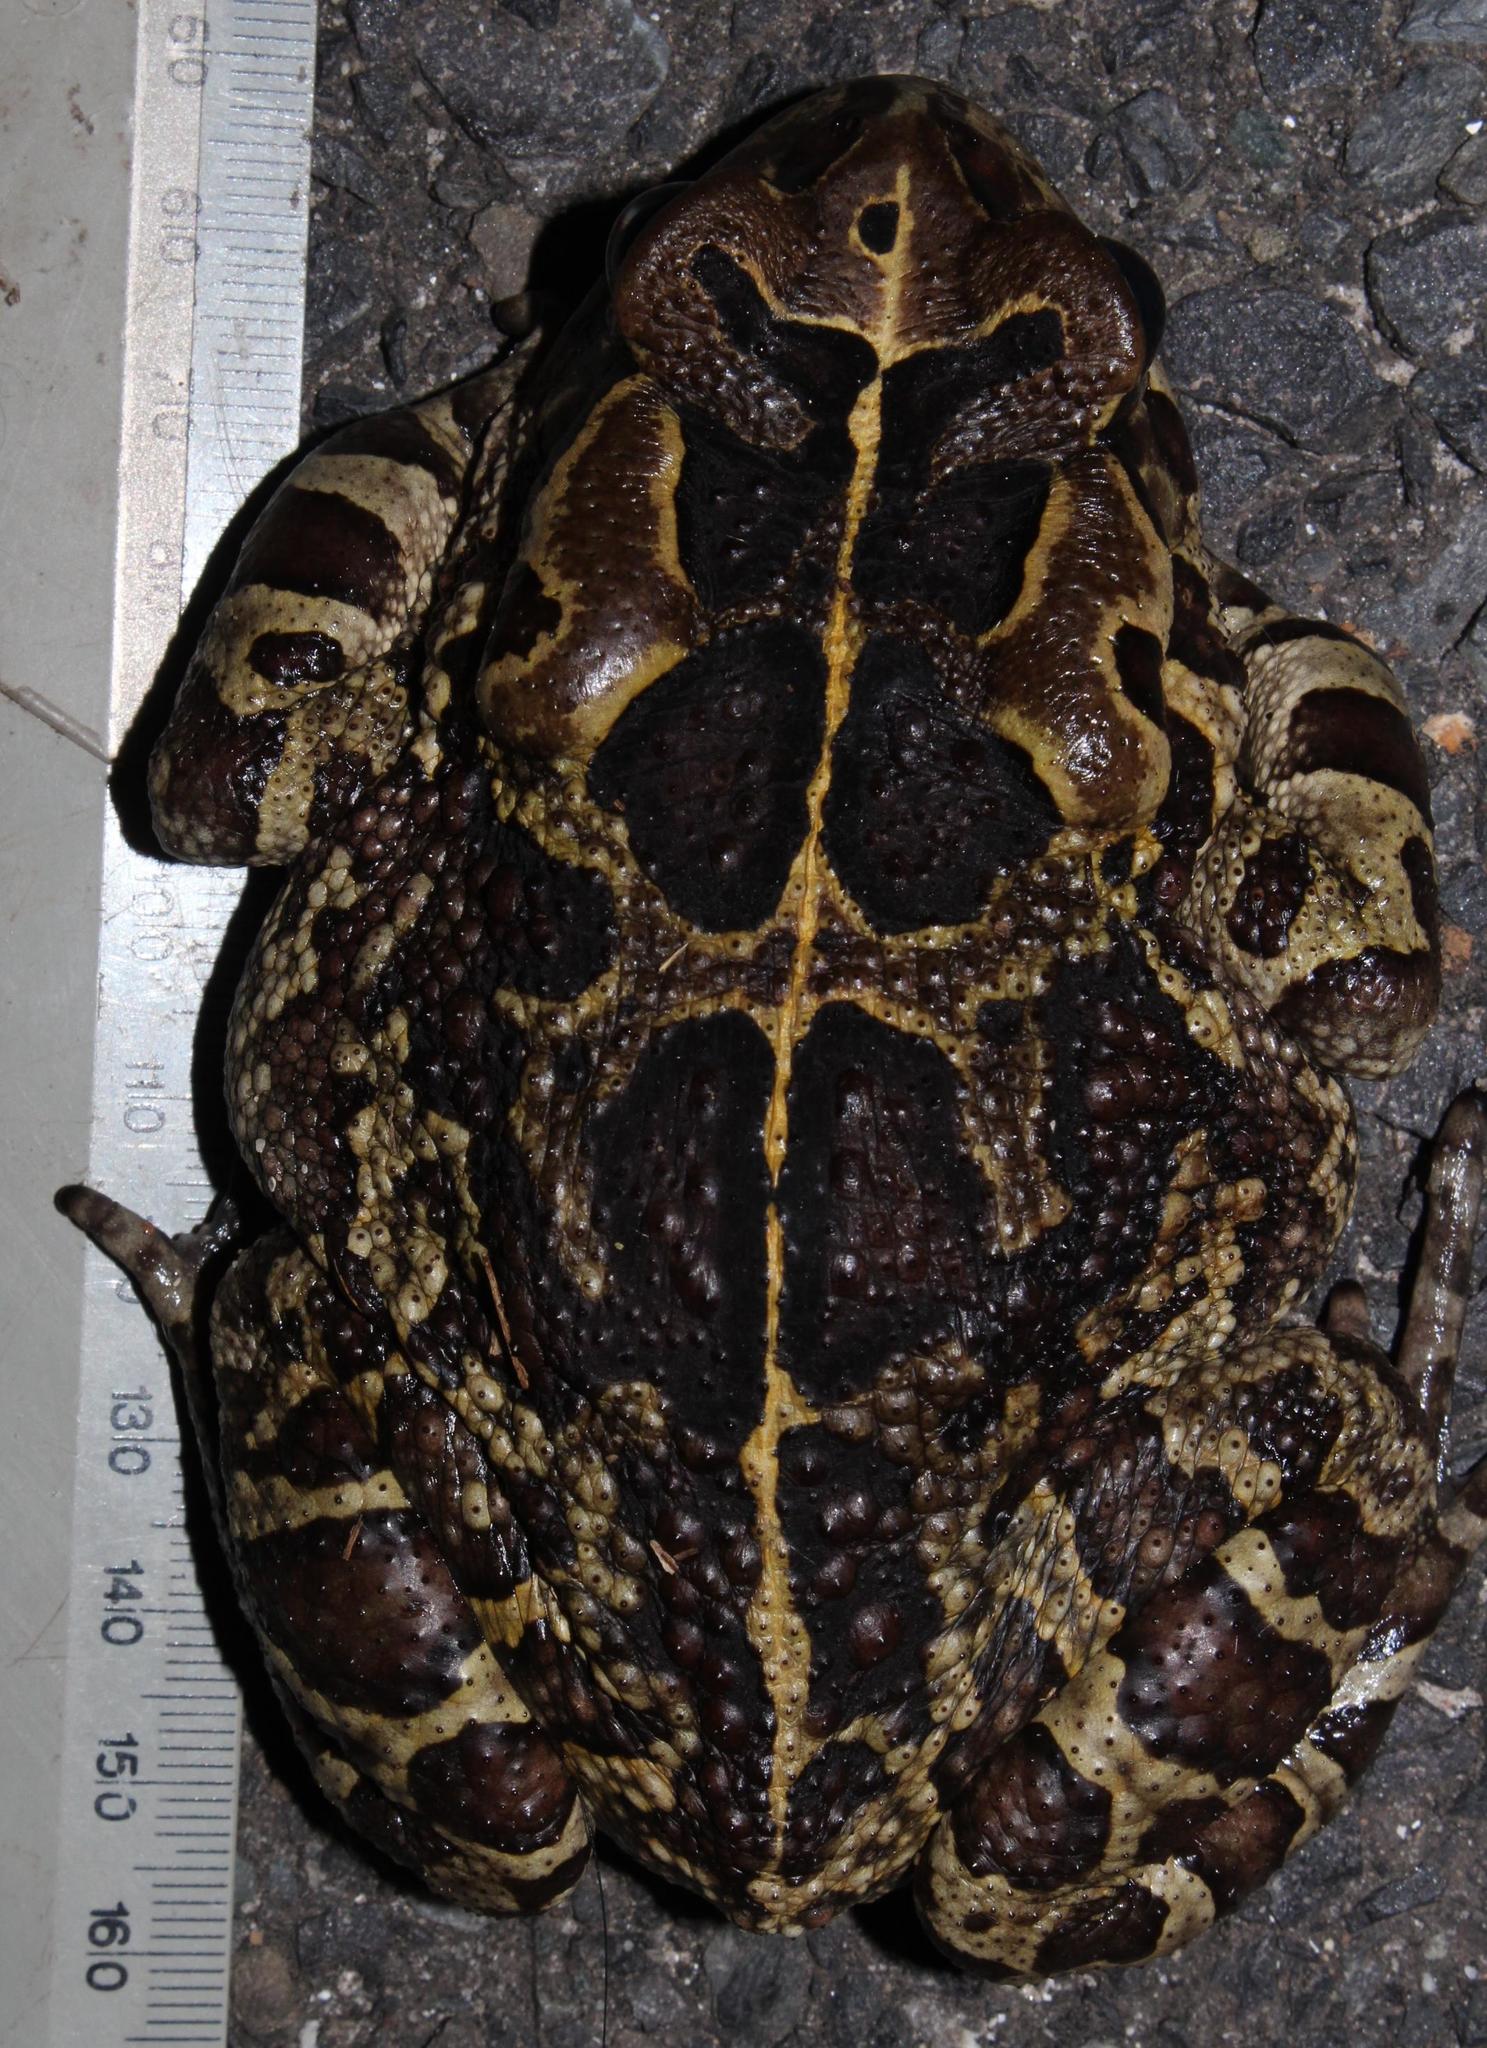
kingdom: Animalia
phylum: Chordata
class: Amphibia
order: Anura
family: Bufonidae
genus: Sclerophrys
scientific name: Sclerophrys pantherina
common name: Panther toad
